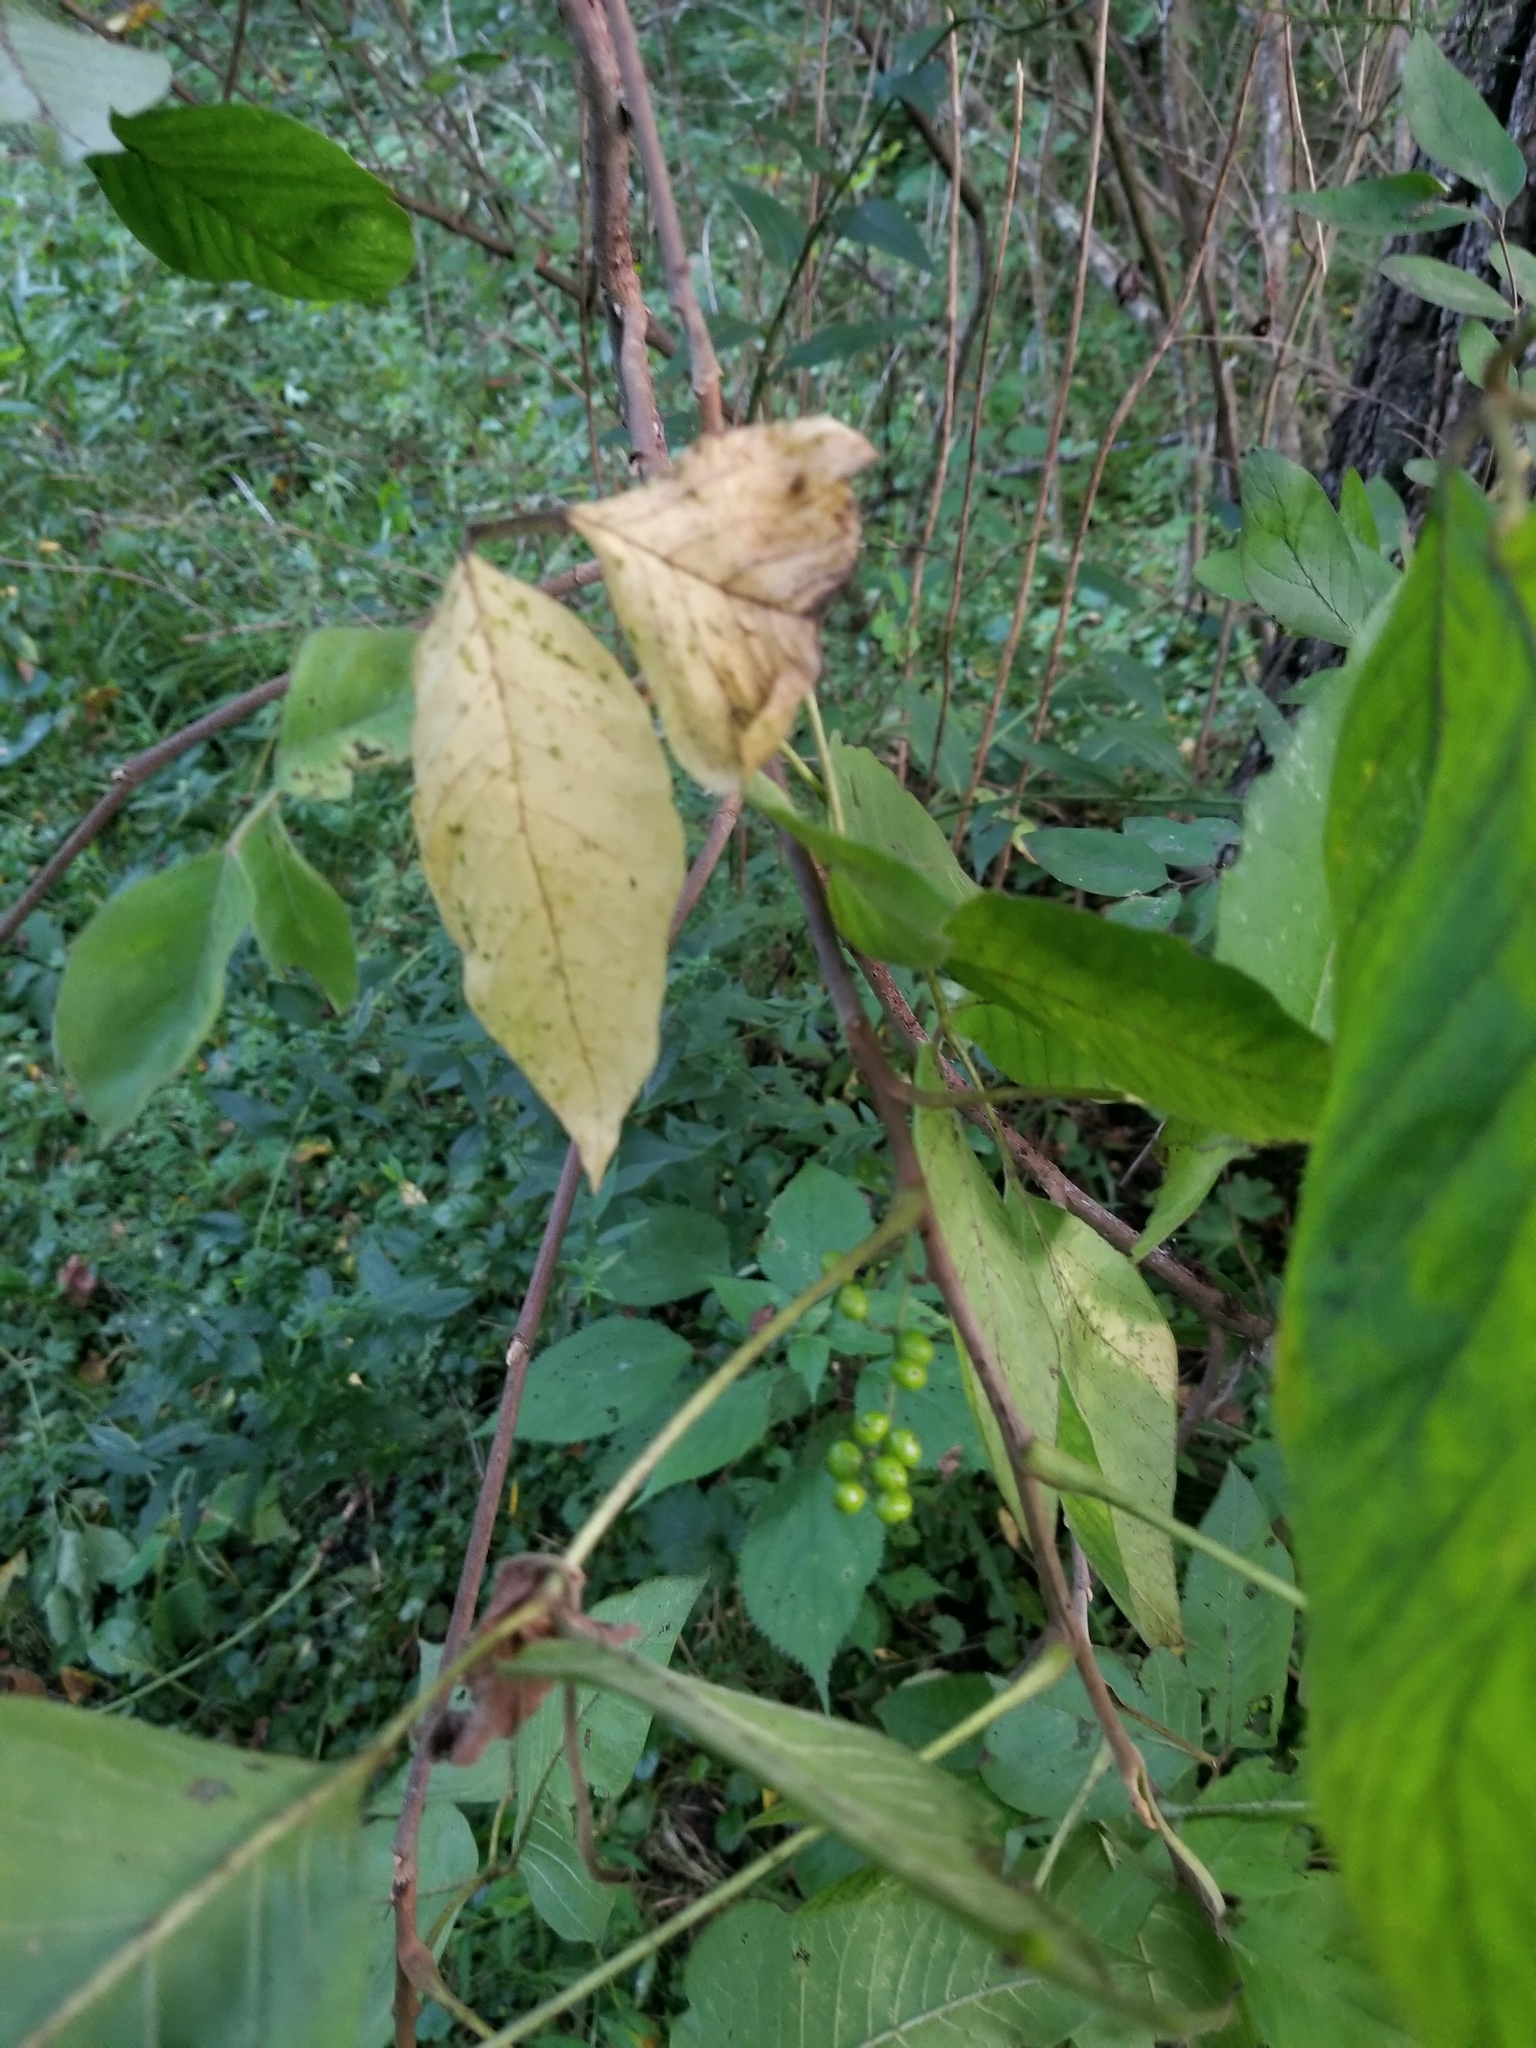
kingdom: Plantae
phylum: Tracheophyta
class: Magnoliopsida
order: Sapindales
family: Anacardiaceae
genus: Toxicodendron
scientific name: Toxicodendron radicans
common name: Poison ivy
